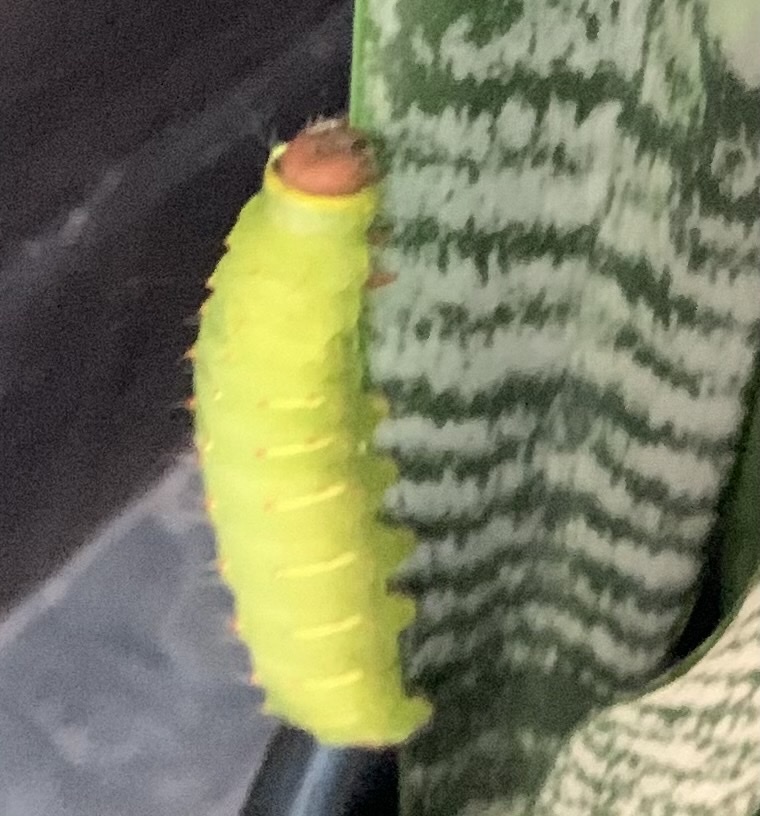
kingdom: Animalia
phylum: Arthropoda
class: Insecta
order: Lepidoptera
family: Saturniidae
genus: Antheraea
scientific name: Antheraea polyphemus
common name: Polyphemus moth
